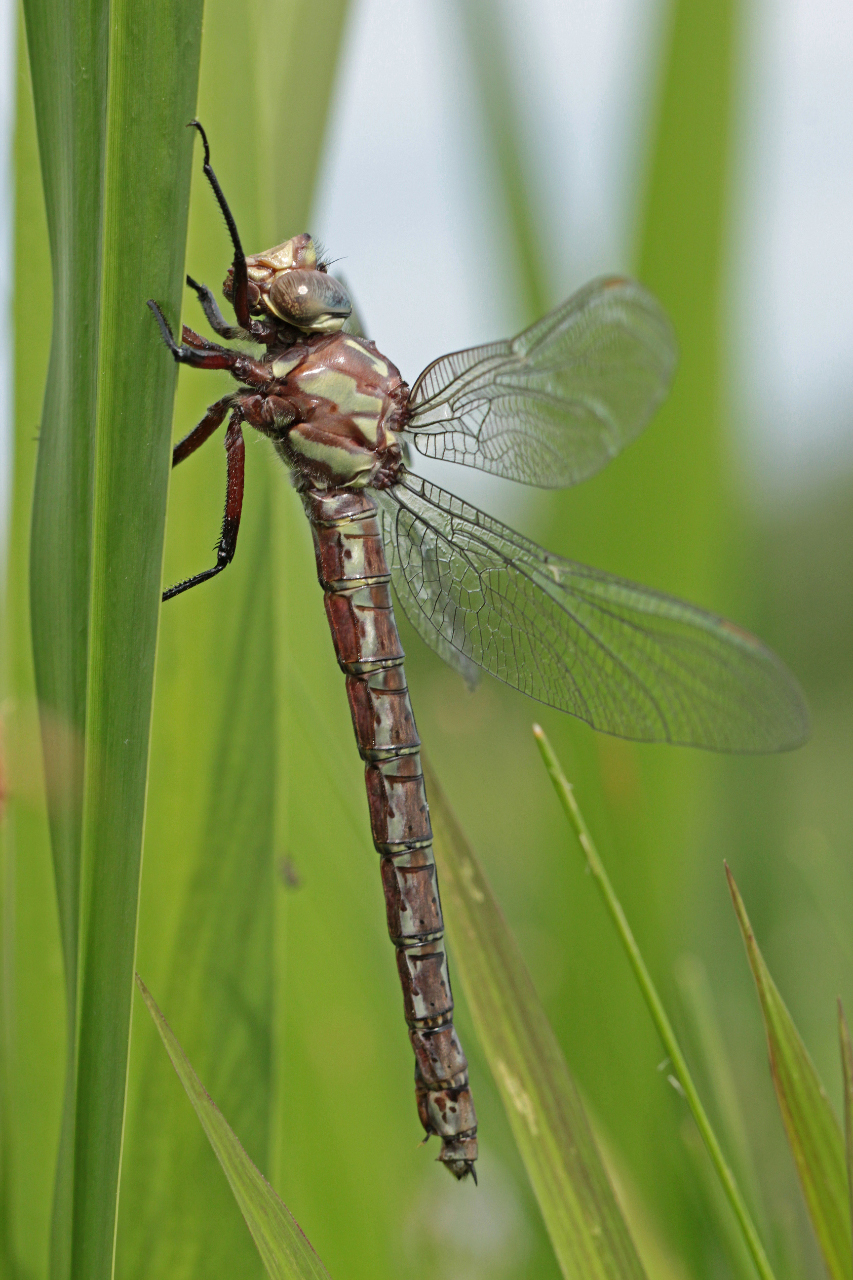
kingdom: Animalia
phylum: Arthropoda
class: Insecta
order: Odonata
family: Aeshnidae
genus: Nasiaeschna
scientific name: Nasiaeschna pentacantha
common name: Cyrano darner
